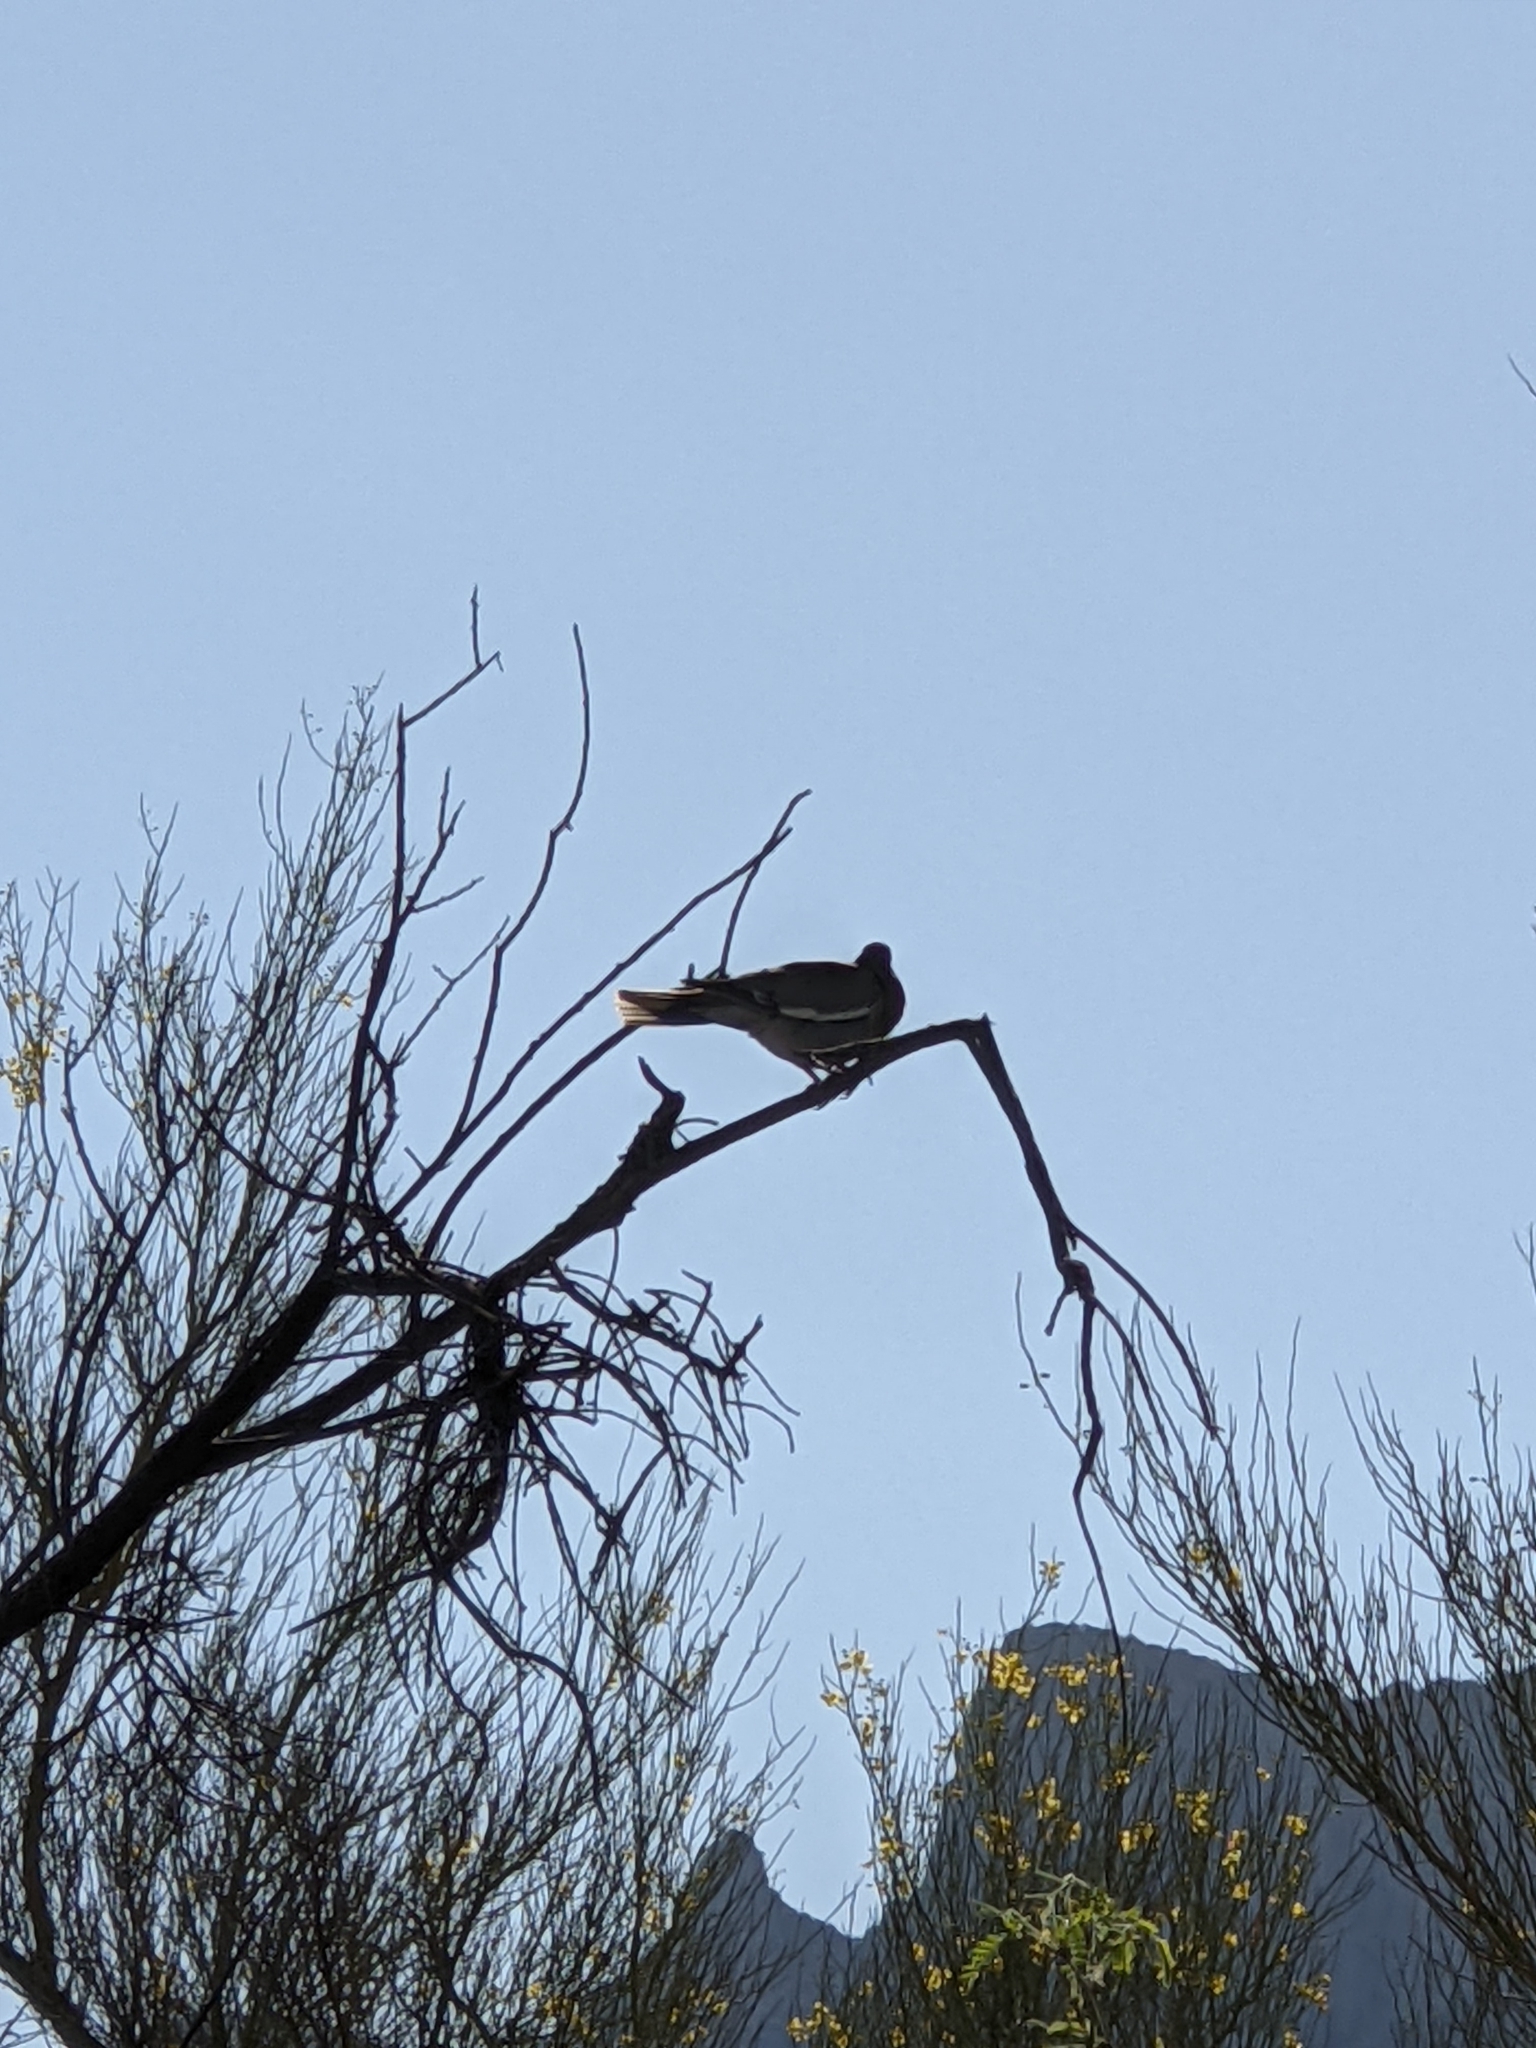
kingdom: Animalia
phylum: Chordata
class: Aves
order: Columbiformes
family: Columbidae
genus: Zenaida
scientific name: Zenaida asiatica
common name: White-winged dove
